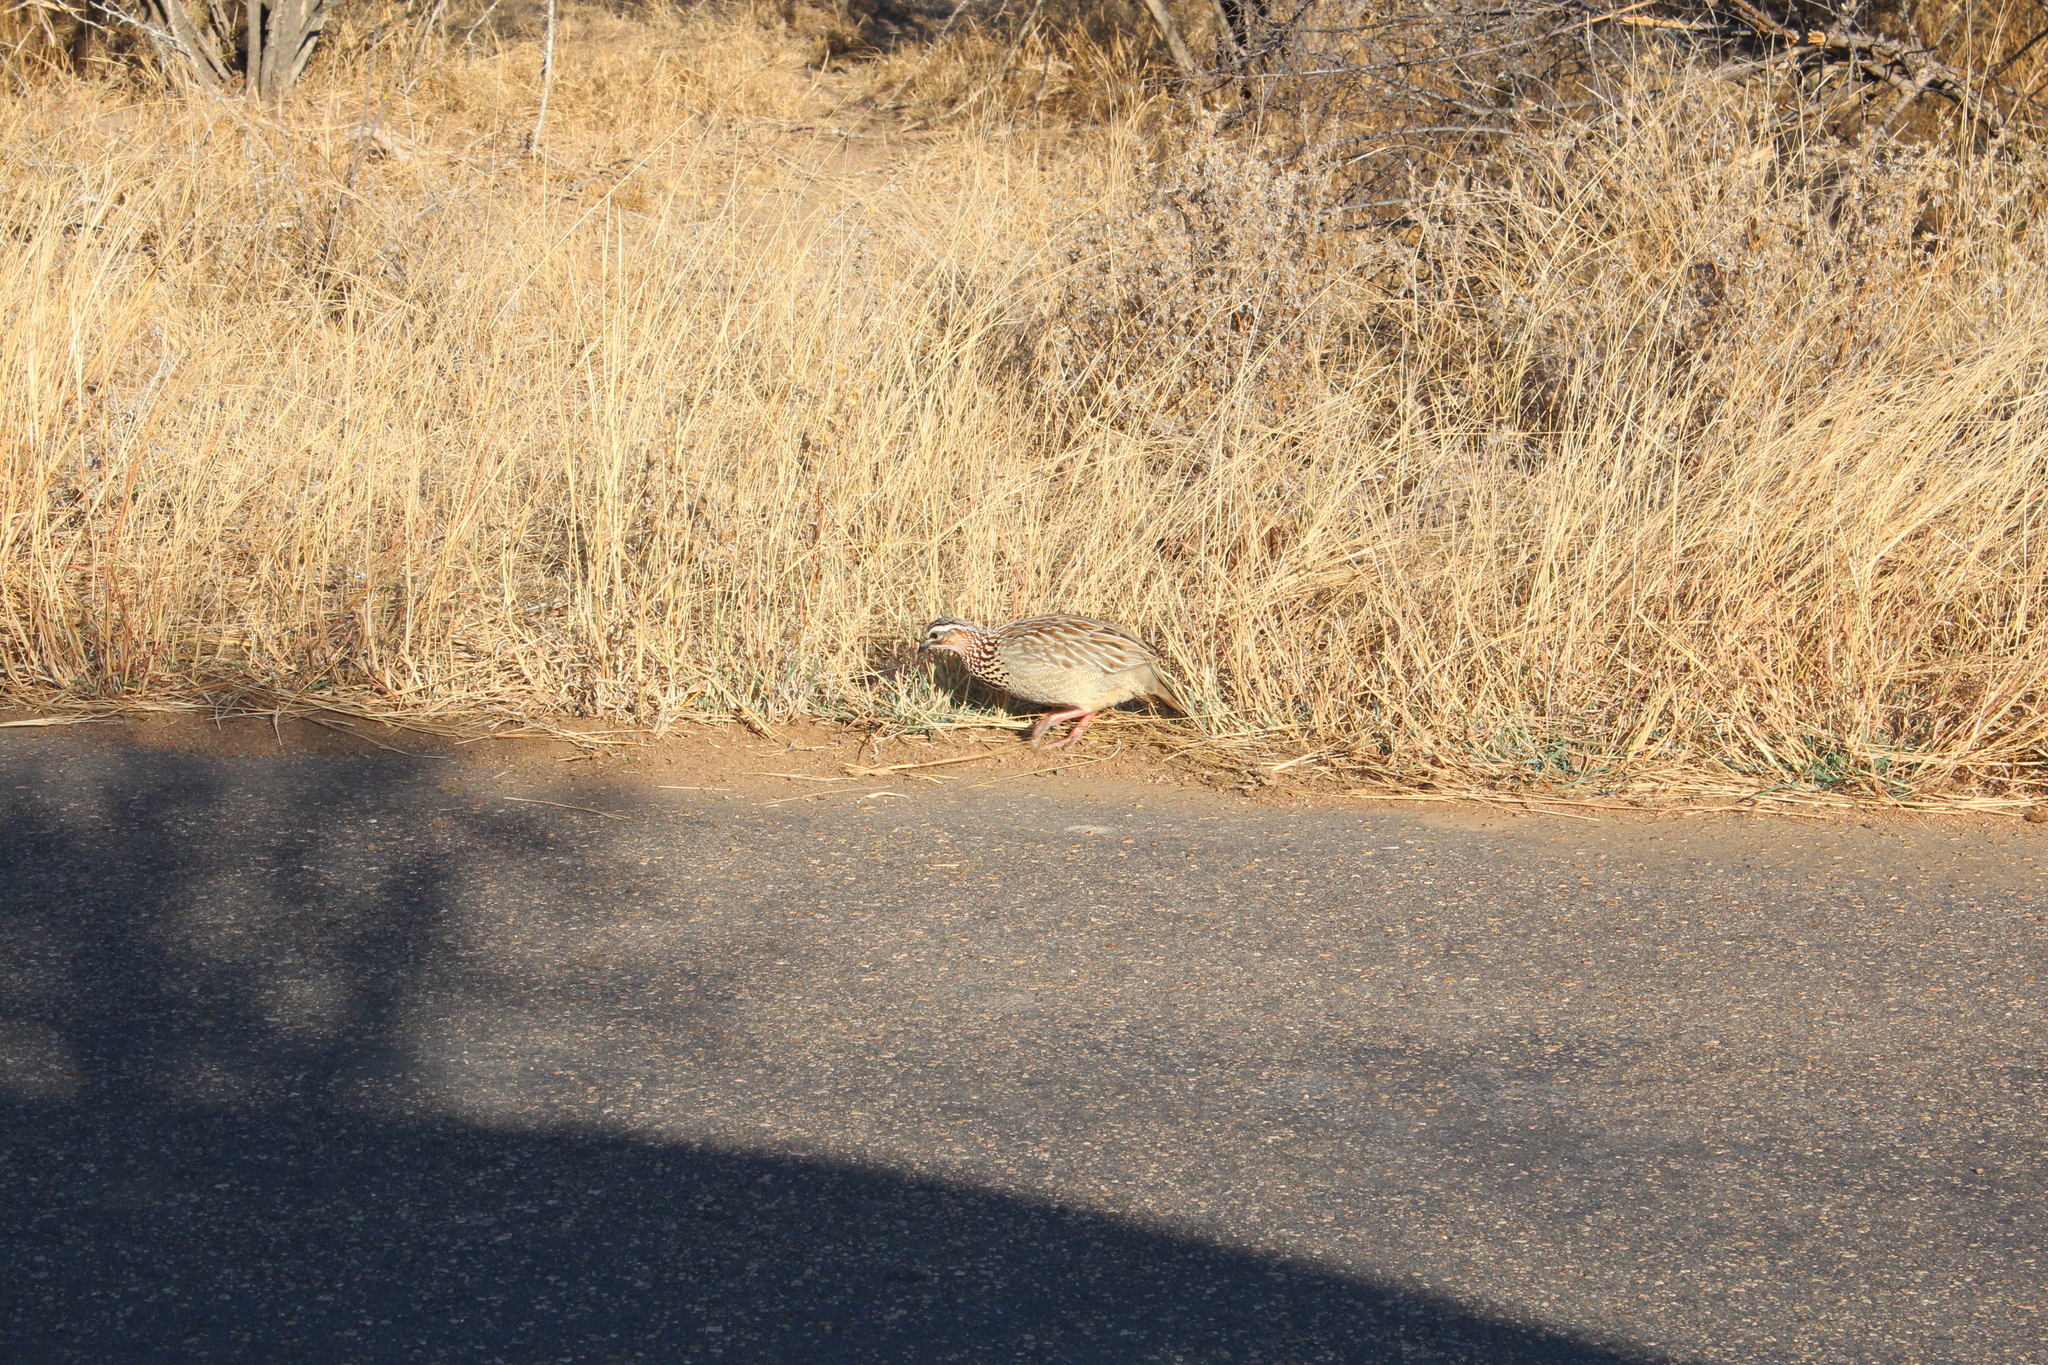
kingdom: Animalia
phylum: Chordata
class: Aves
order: Galliformes
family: Phasianidae
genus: Ortygornis
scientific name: Ortygornis sephaena
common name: Crested francolin
